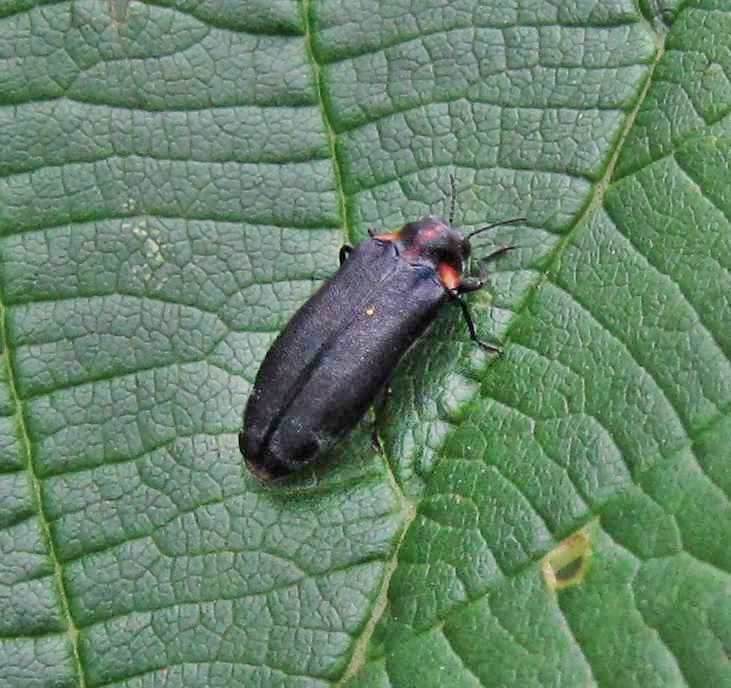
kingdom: Animalia
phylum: Arthropoda
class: Insecta
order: Coleoptera
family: Buprestidae
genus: Eupristocerus
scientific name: Eupristocerus cogitans
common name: Alder gall buprestid
